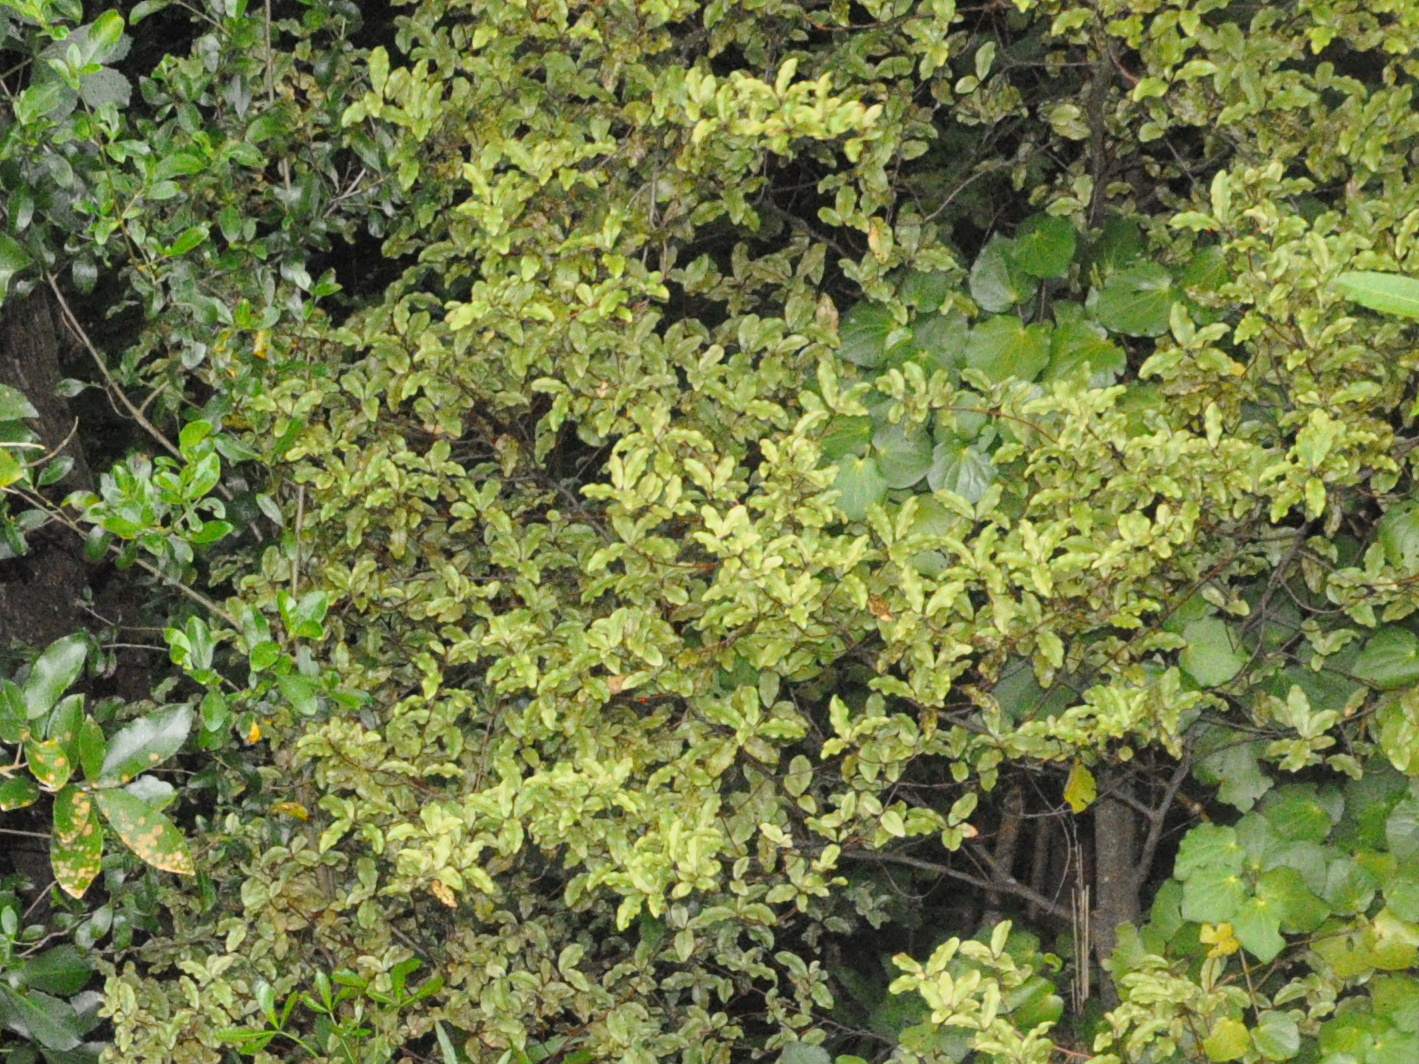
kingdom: Plantae
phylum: Tracheophyta
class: Magnoliopsida
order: Ericales
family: Primulaceae
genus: Myrsine
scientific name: Myrsine australis
